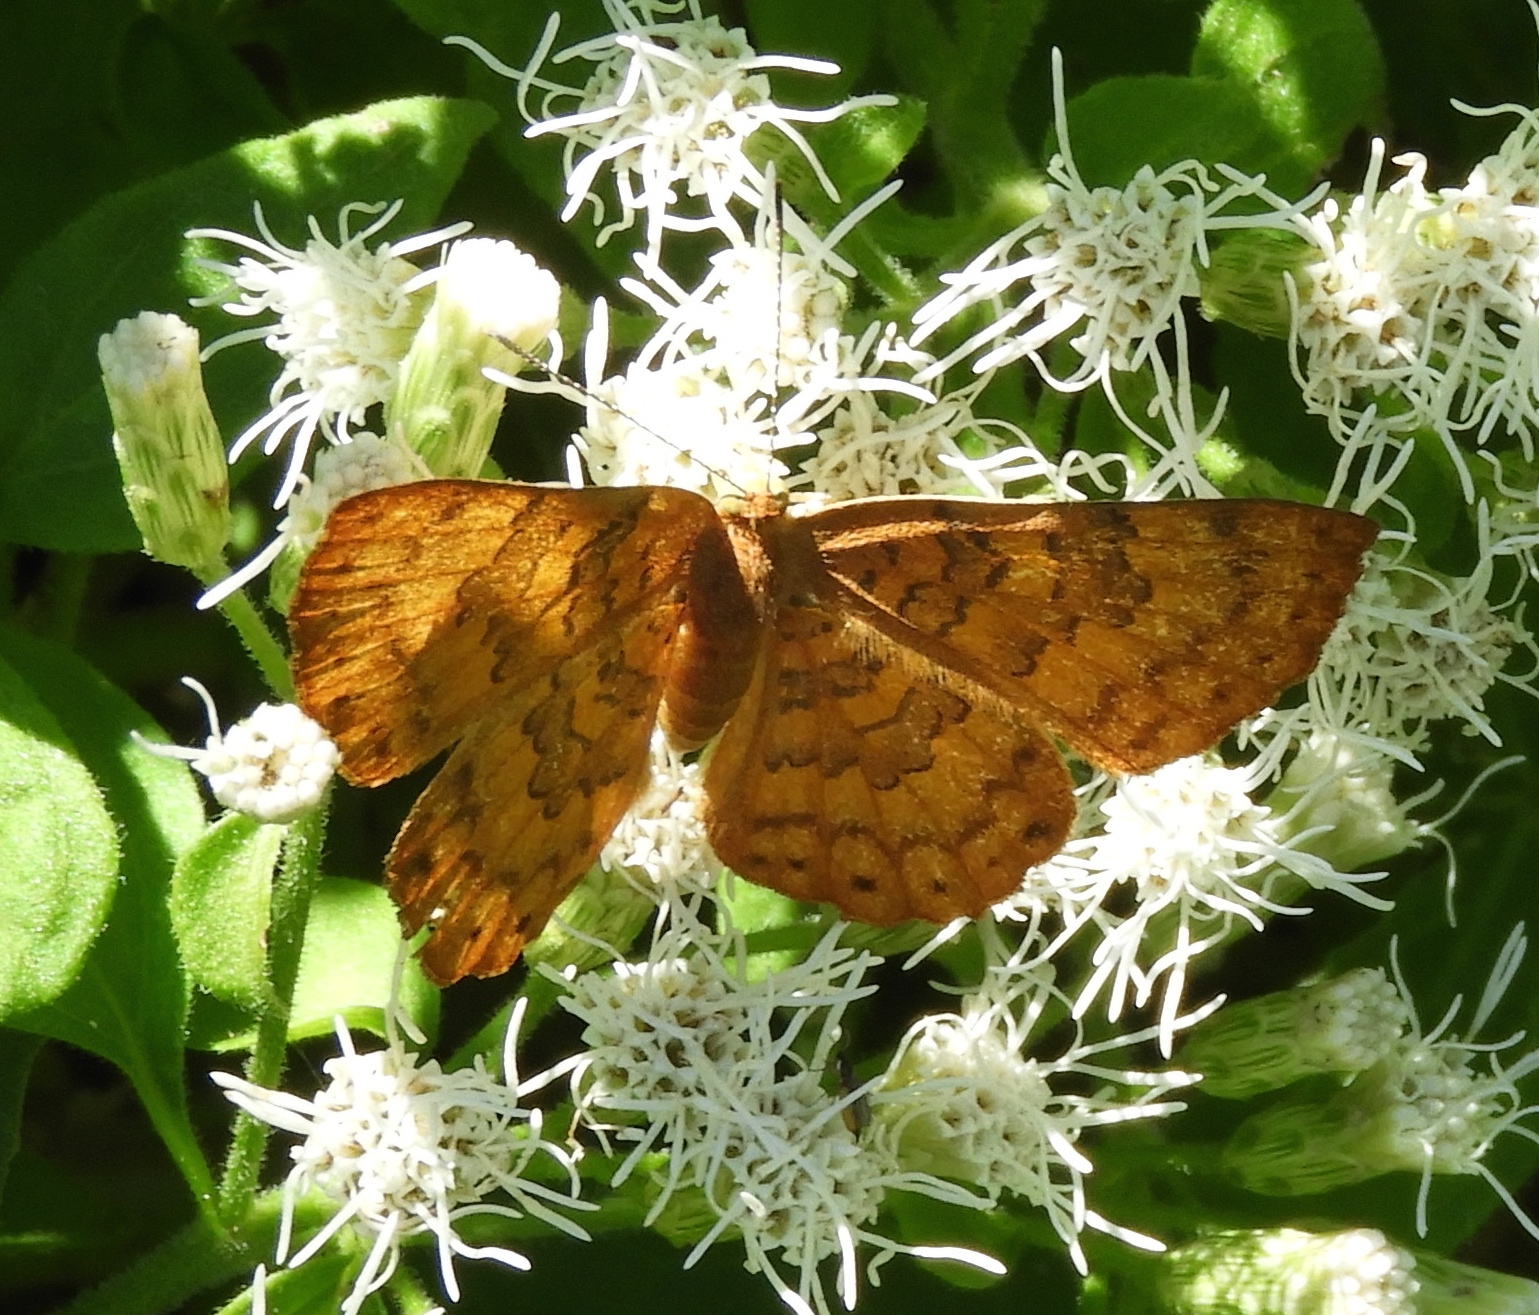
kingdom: Animalia
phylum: Arthropoda
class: Insecta
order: Lepidoptera
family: Lycaenidae
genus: Emesis
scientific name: Emesis vulpina
